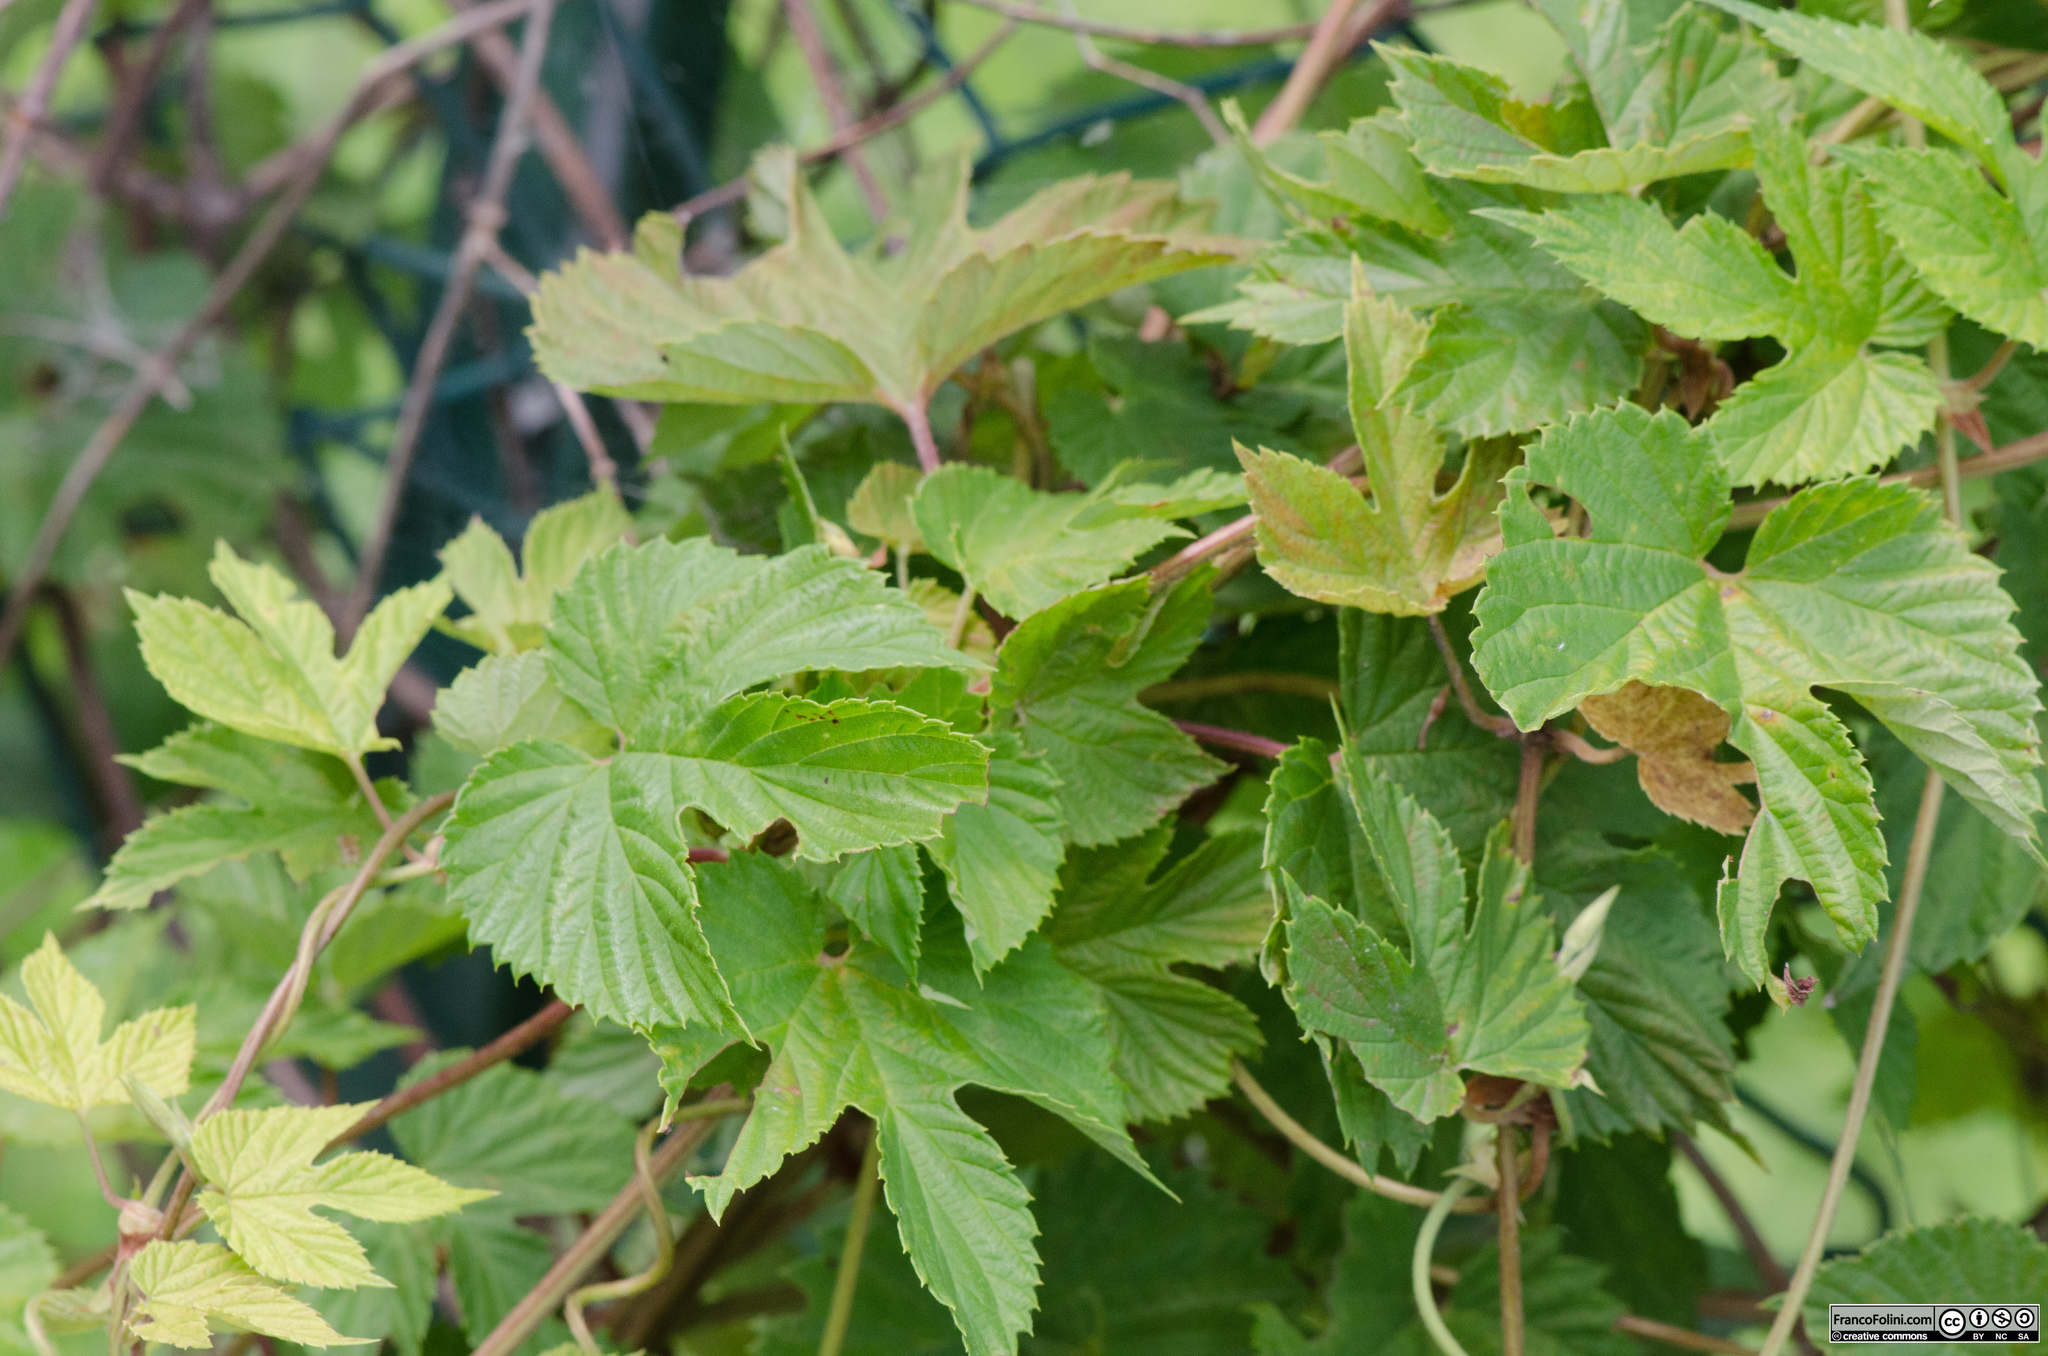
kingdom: Plantae
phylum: Tracheophyta
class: Magnoliopsida
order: Rosales
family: Cannabaceae
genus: Humulus
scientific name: Humulus lupulus
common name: Hop
